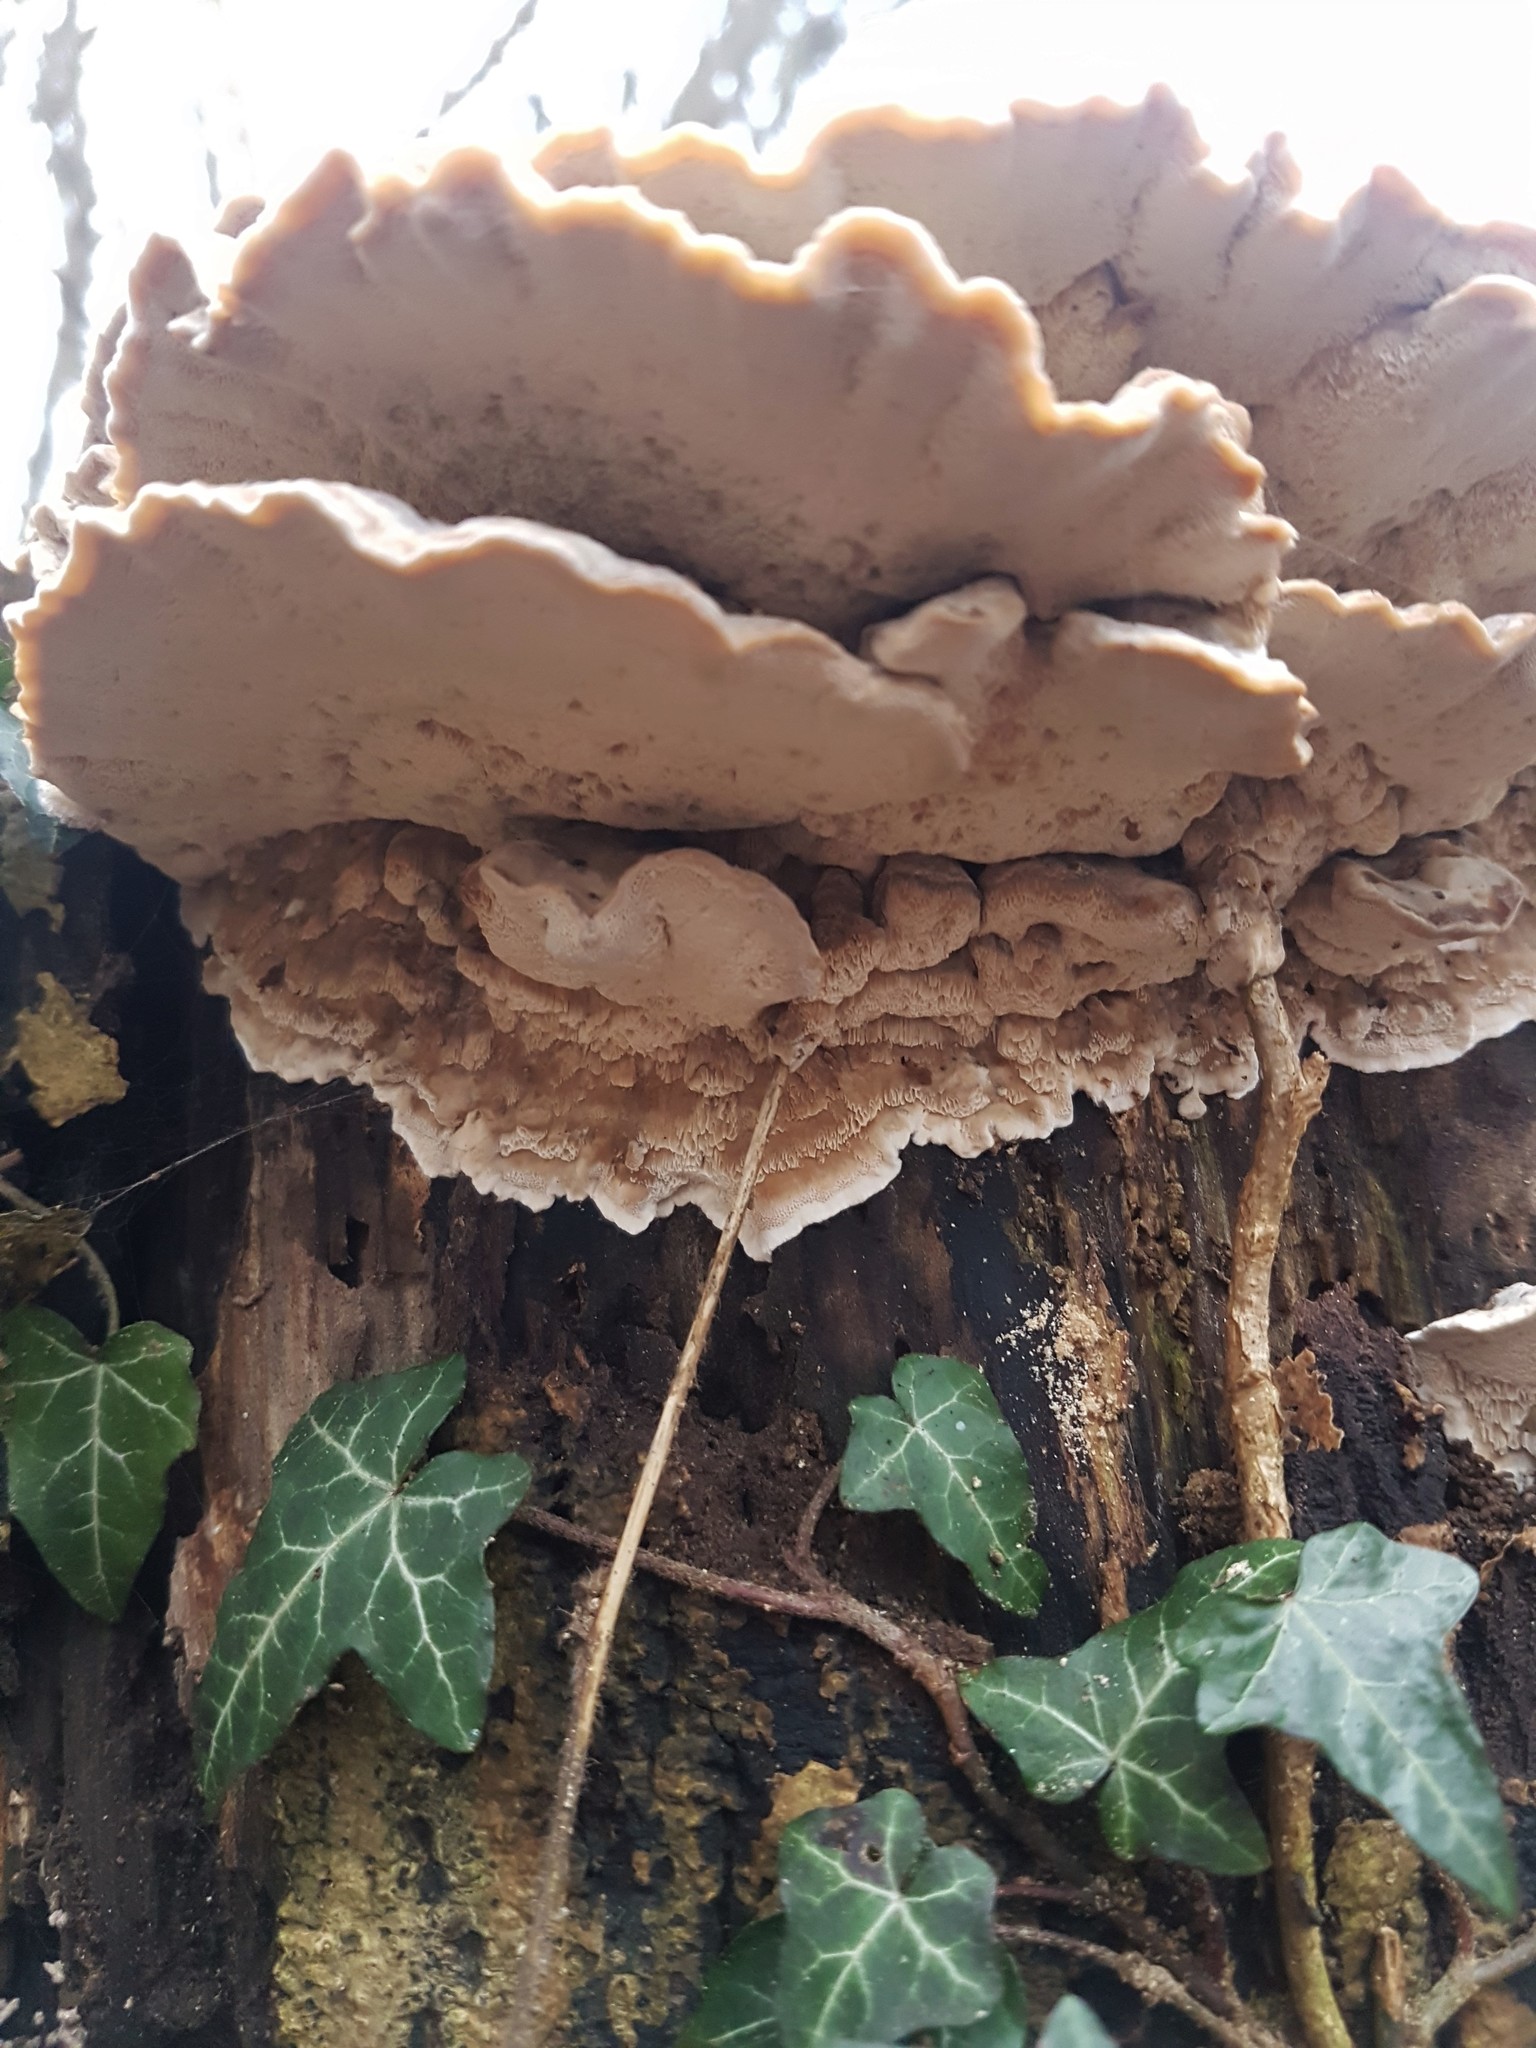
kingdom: Fungi
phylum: Basidiomycota
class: Agaricomycetes
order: Polyporales
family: Meripilaceae
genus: Meripilus
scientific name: Meripilus giganteus
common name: Giant polypore
